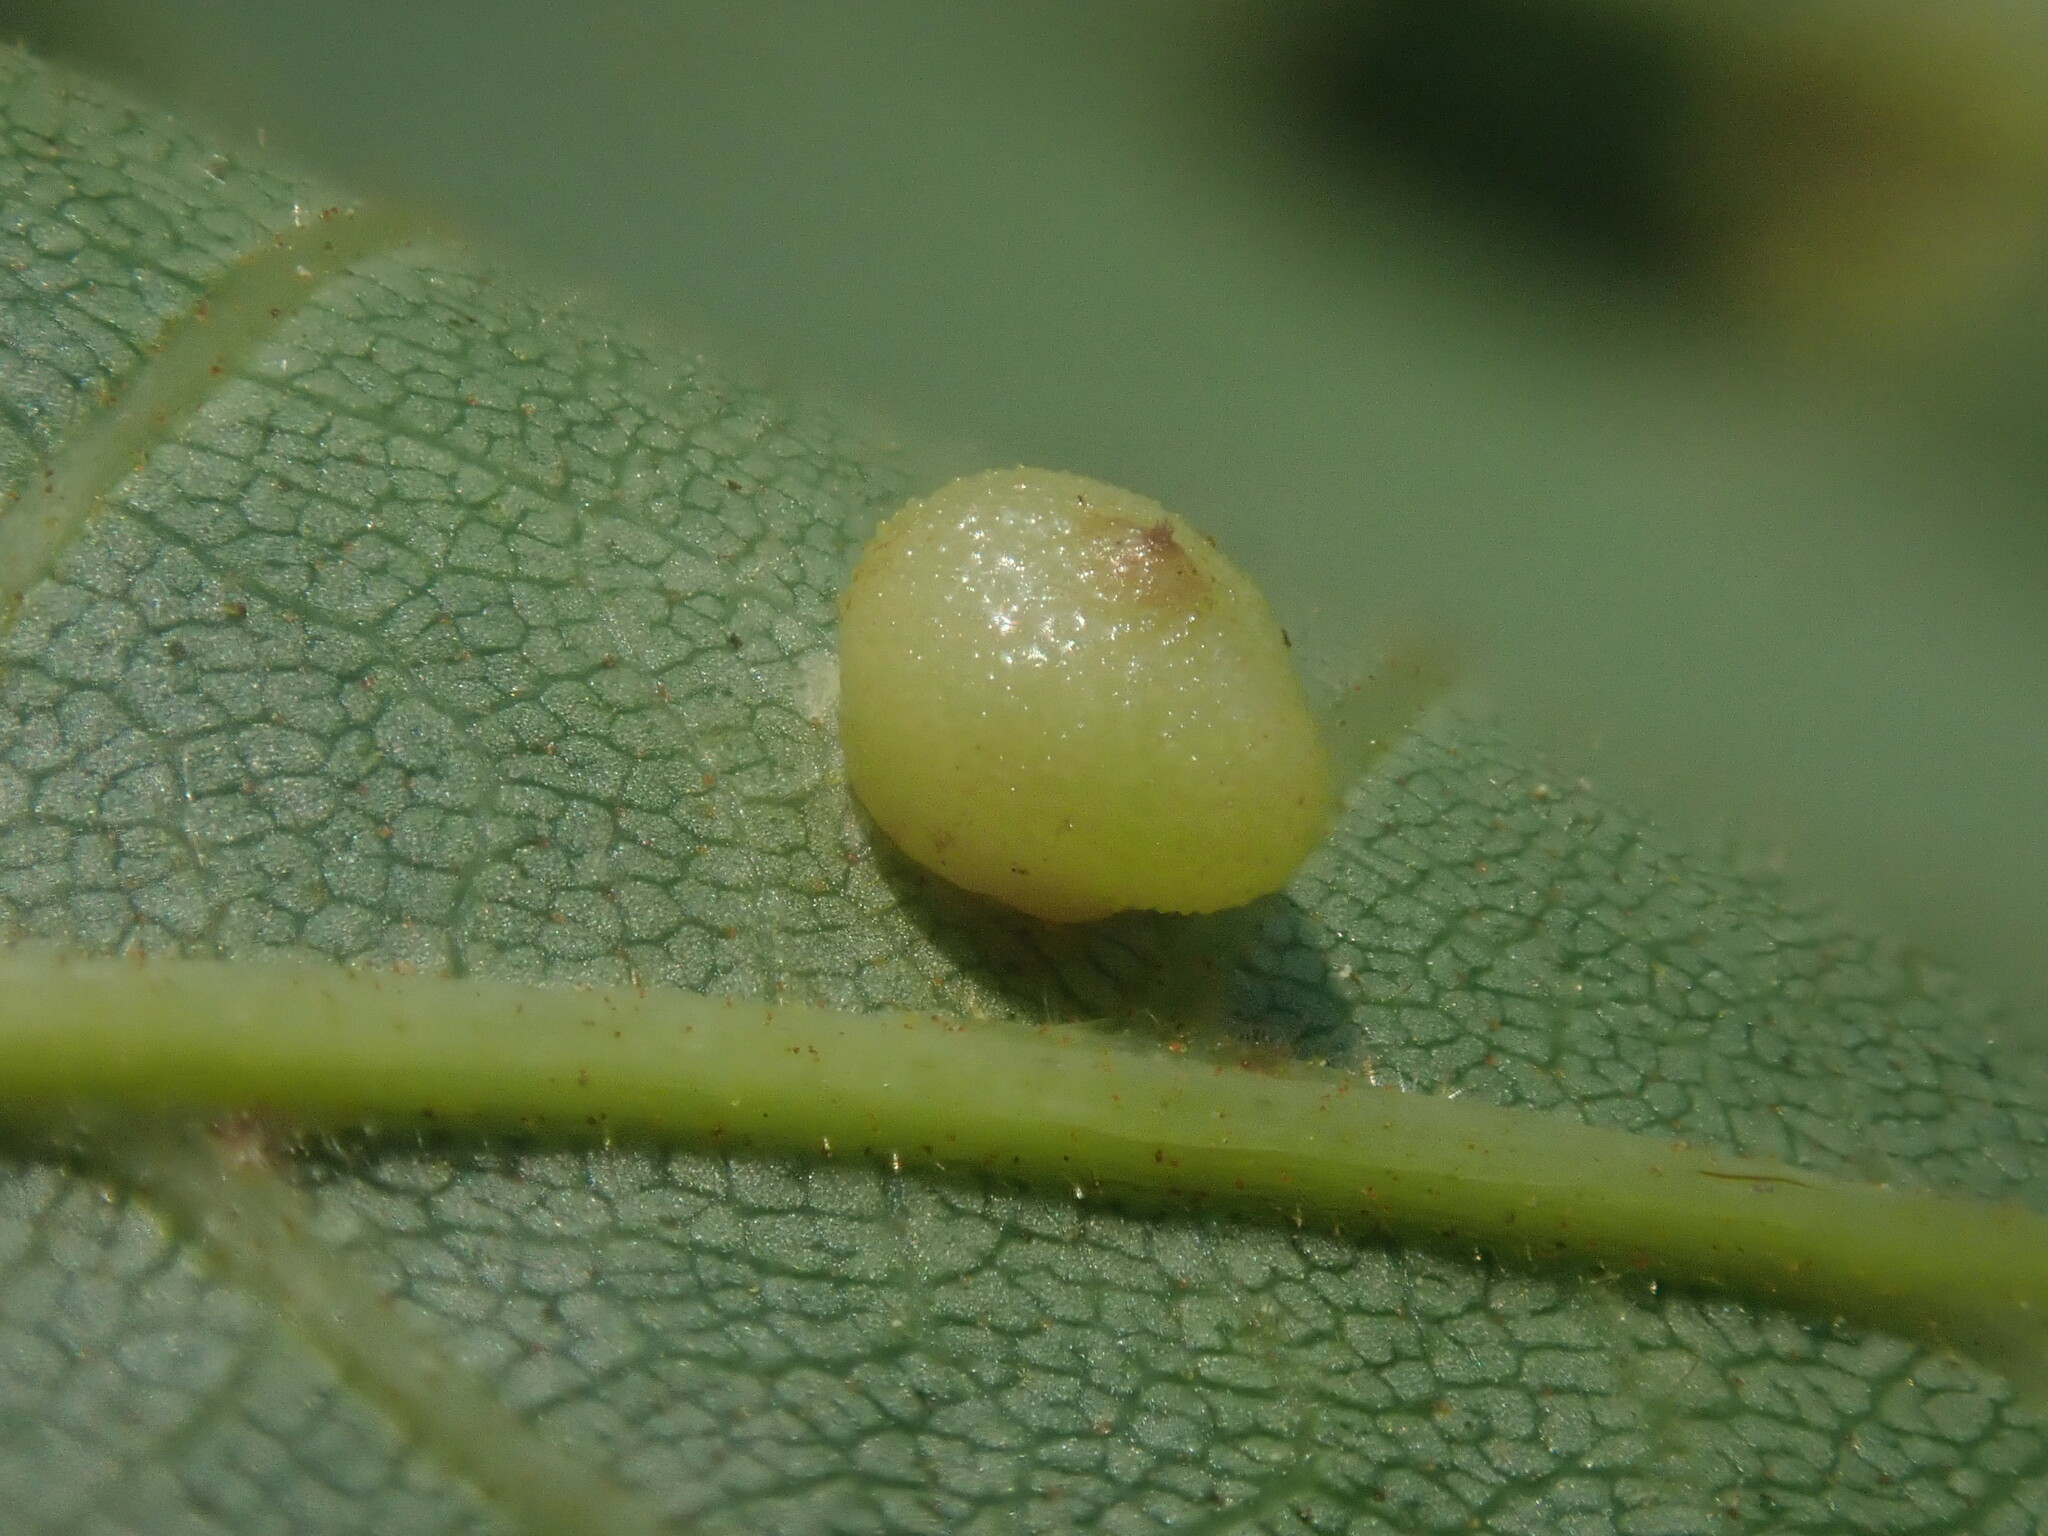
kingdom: Animalia
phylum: Arthropoda
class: Insecta
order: Diptera
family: Cecidomyiidae
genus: Caryomyia
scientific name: Caryomyia caryae
